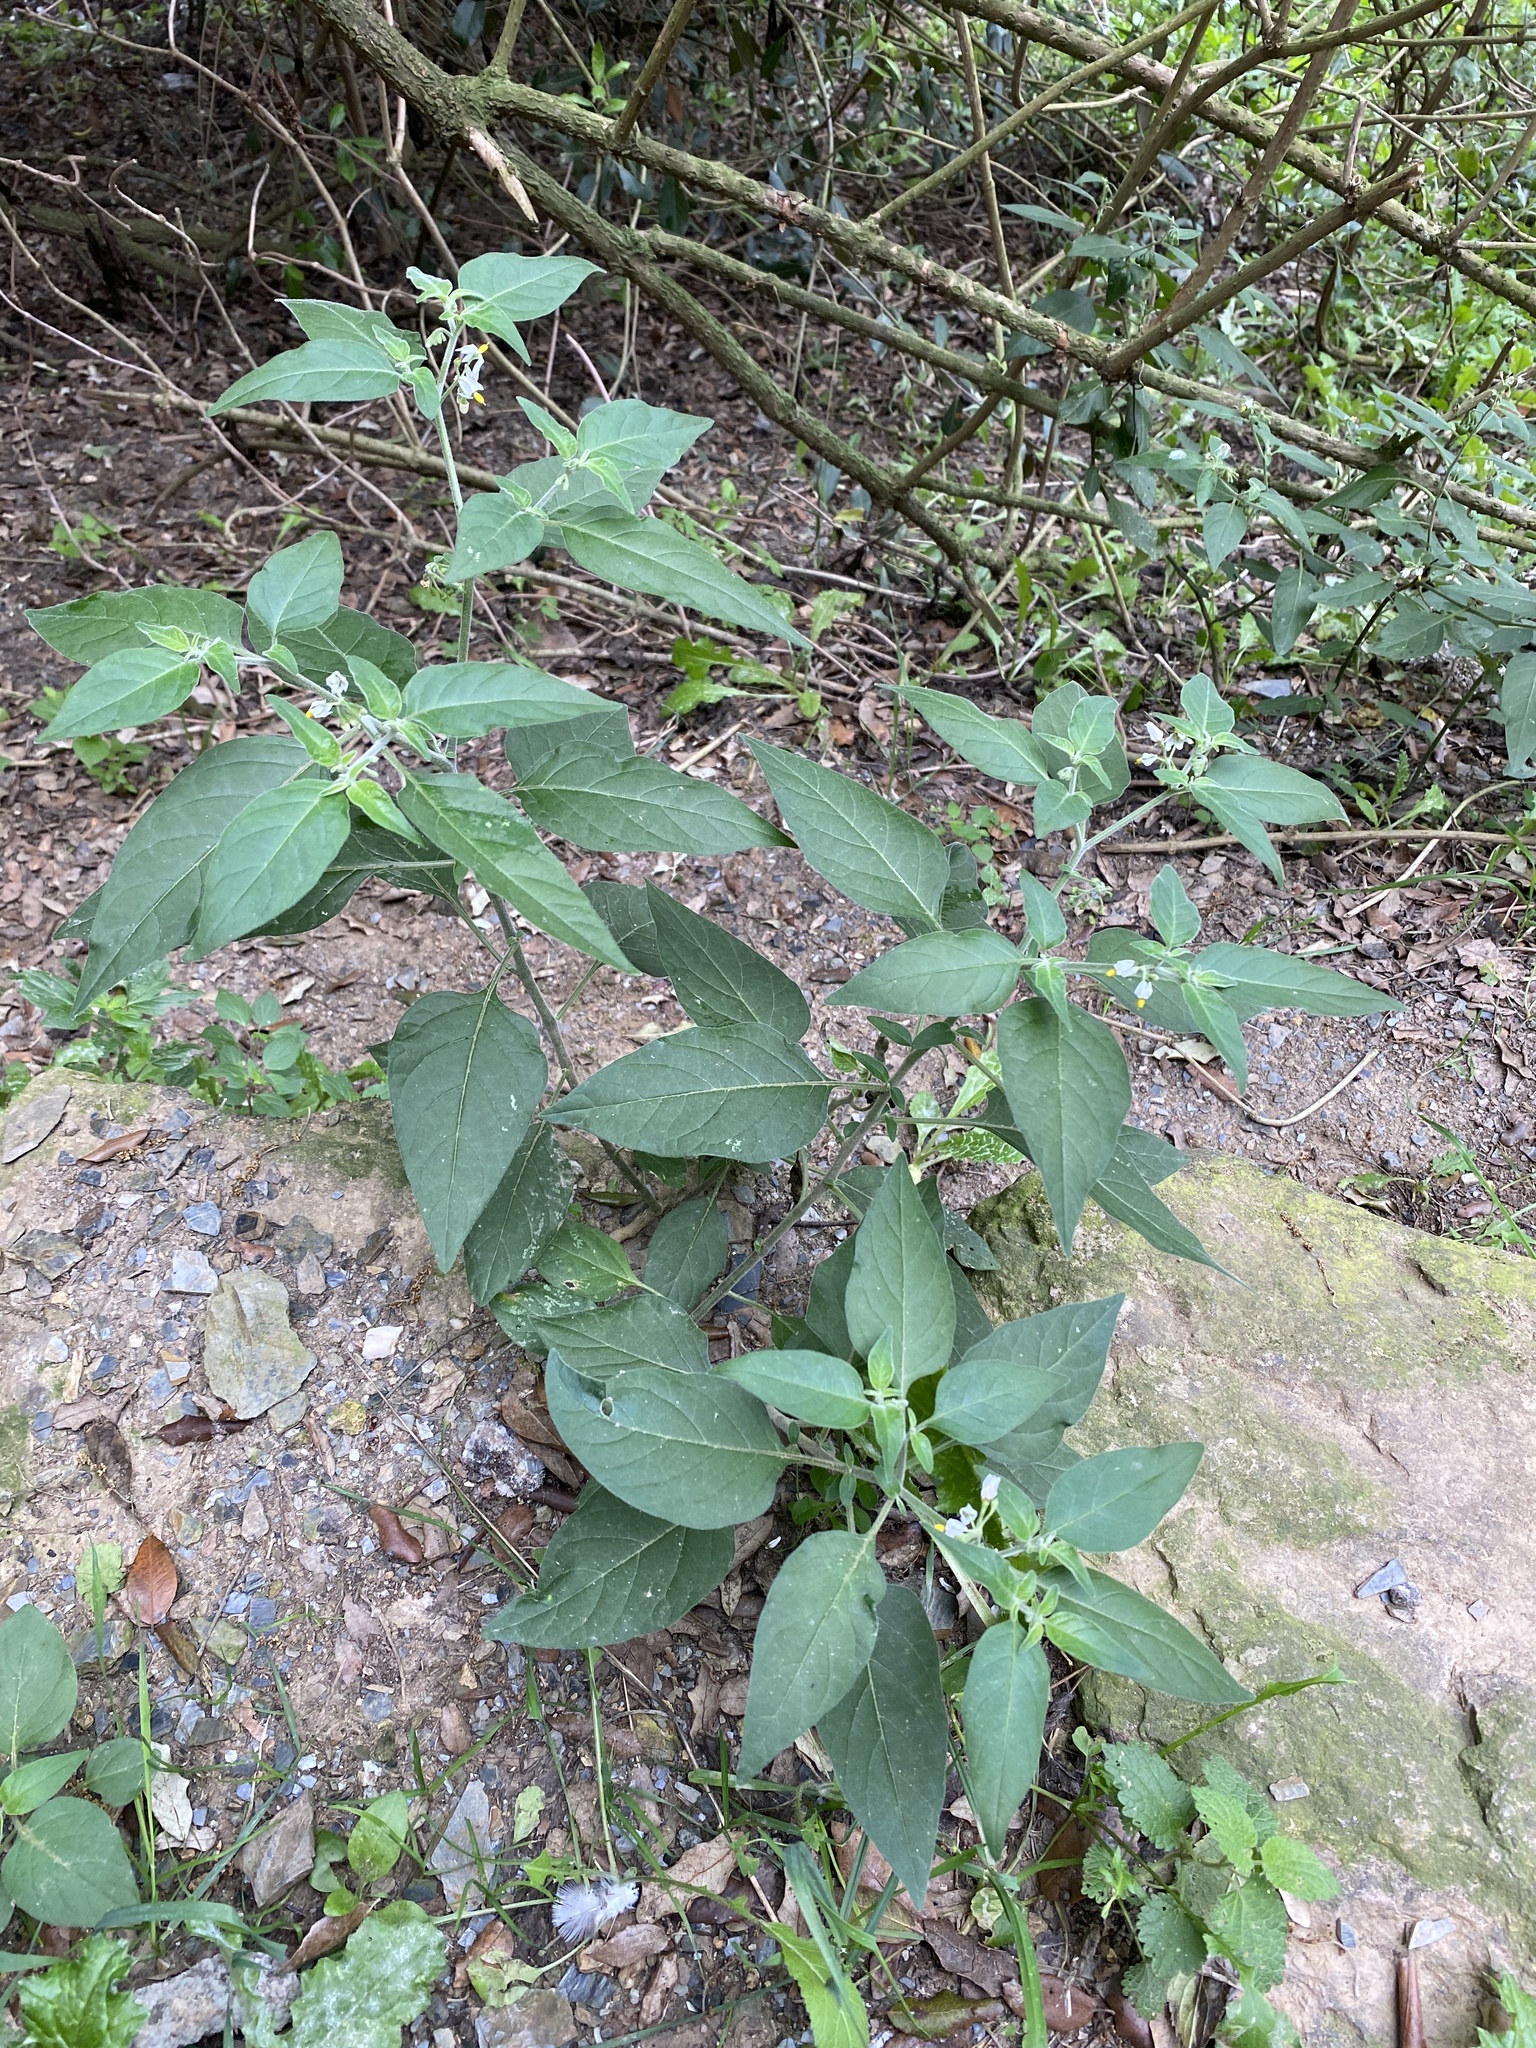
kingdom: Plantae
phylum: Tracheophyta
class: Magnoliopsida
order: Solanales
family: Solanaceae
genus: Solanum
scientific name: Solanum chenopodioides
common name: Tall nightshade
